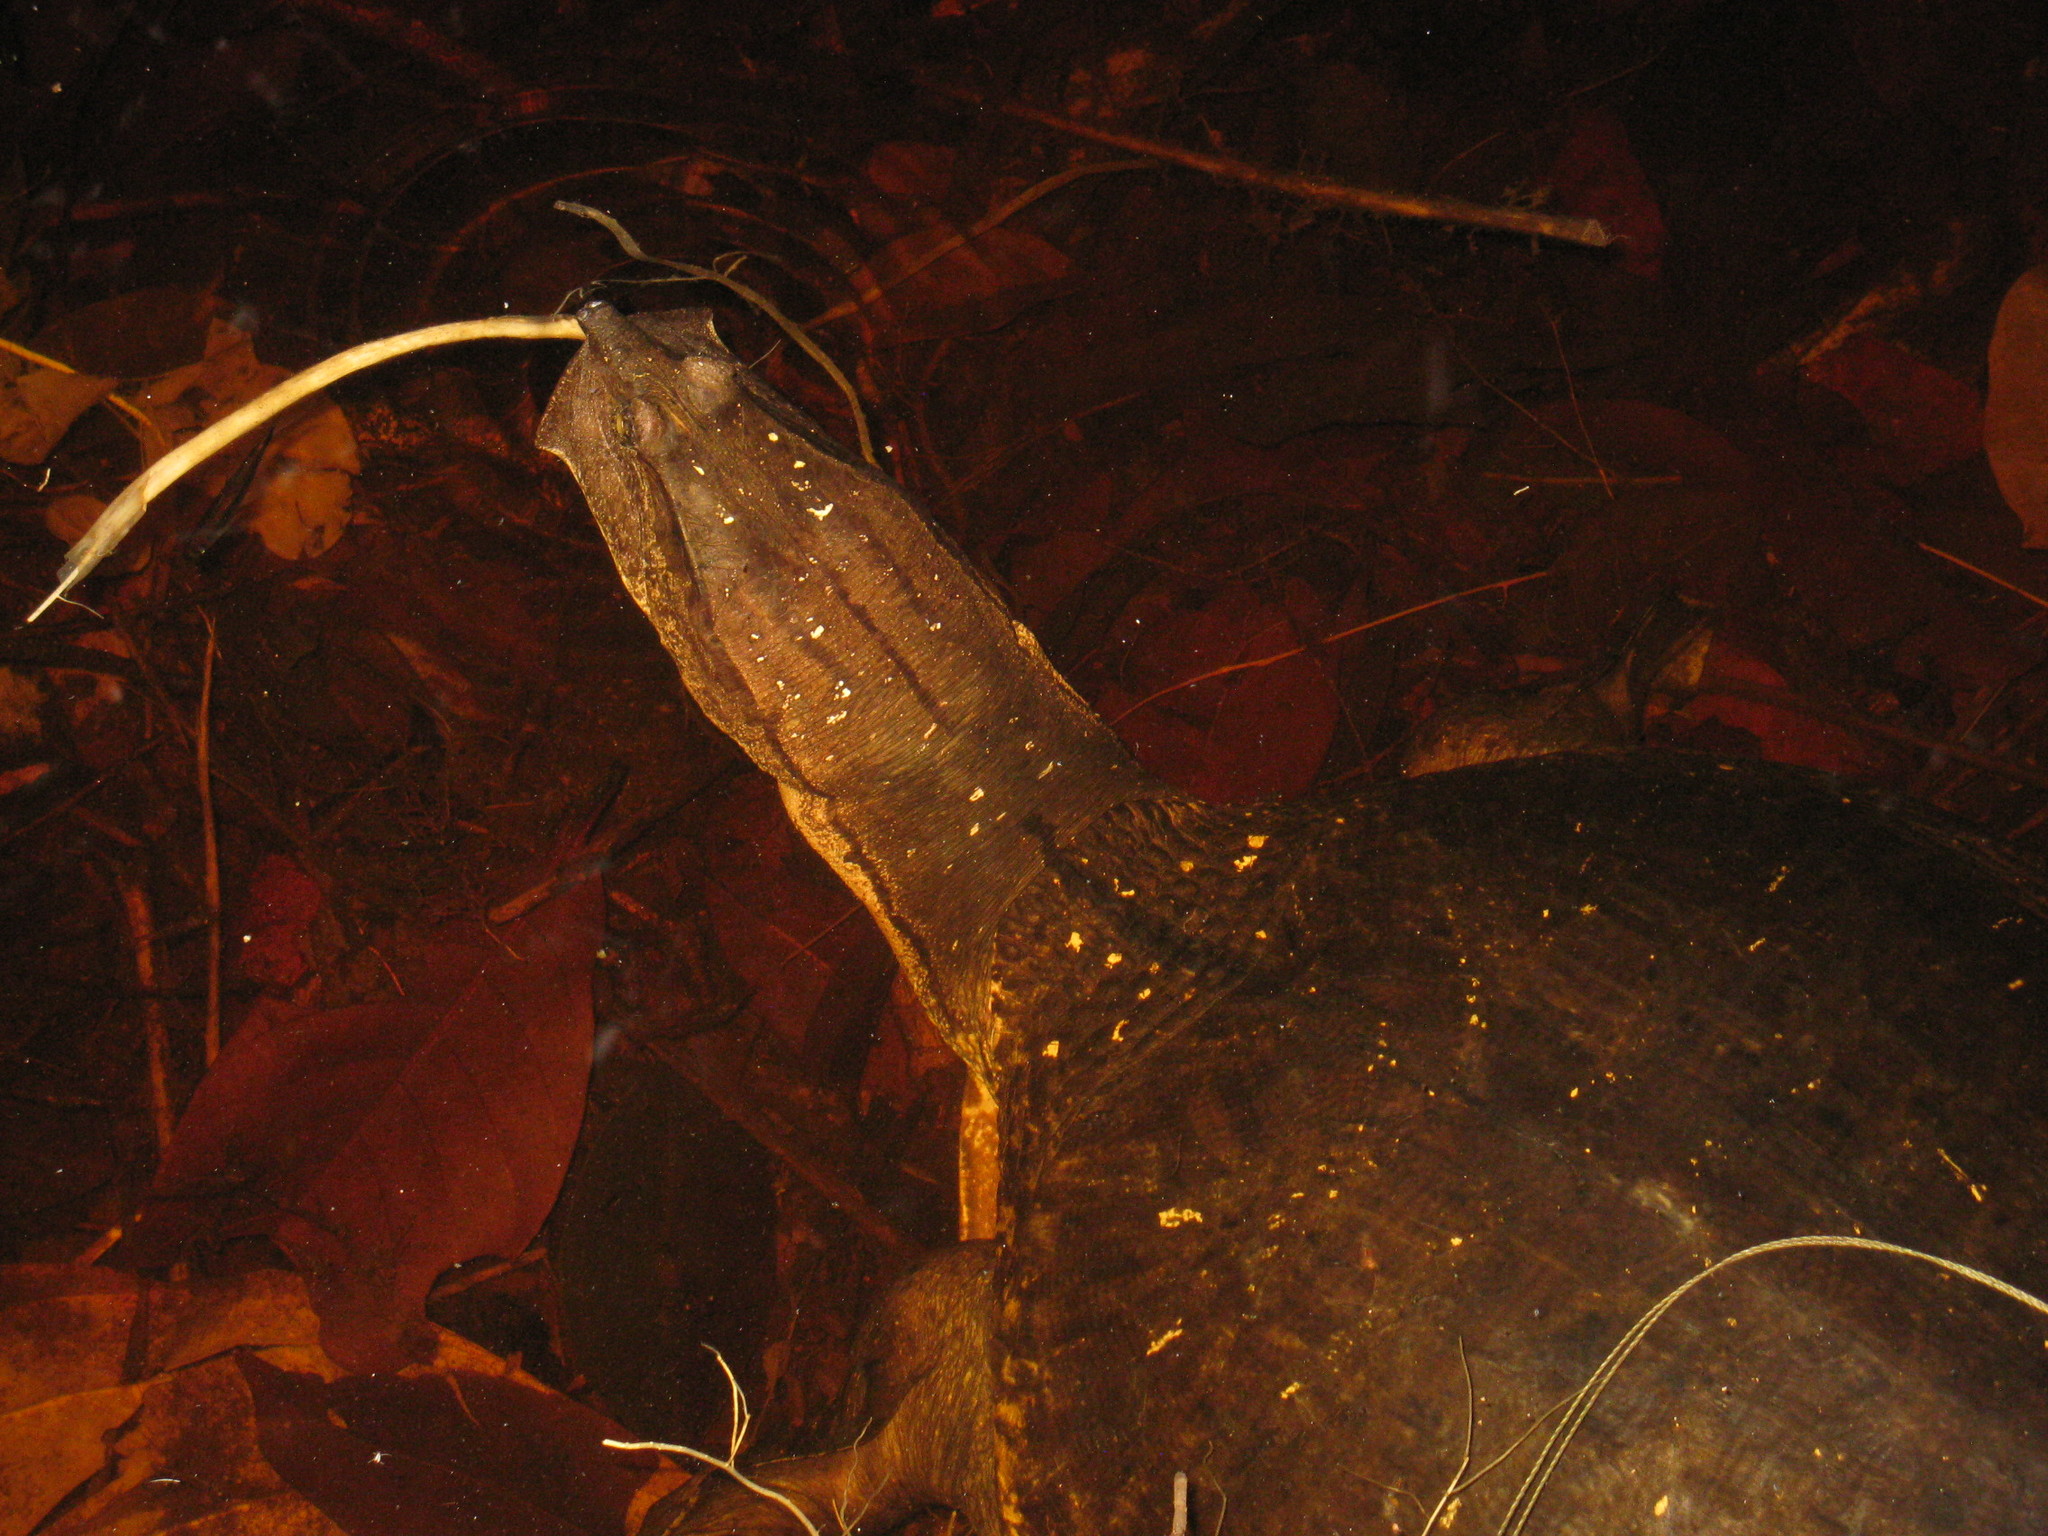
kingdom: Animalia
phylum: Chordata
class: Testudines
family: Trionychidae
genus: Cycloderma
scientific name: Cycloderma aubryi
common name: Aubry’s soft-shelled turtle
